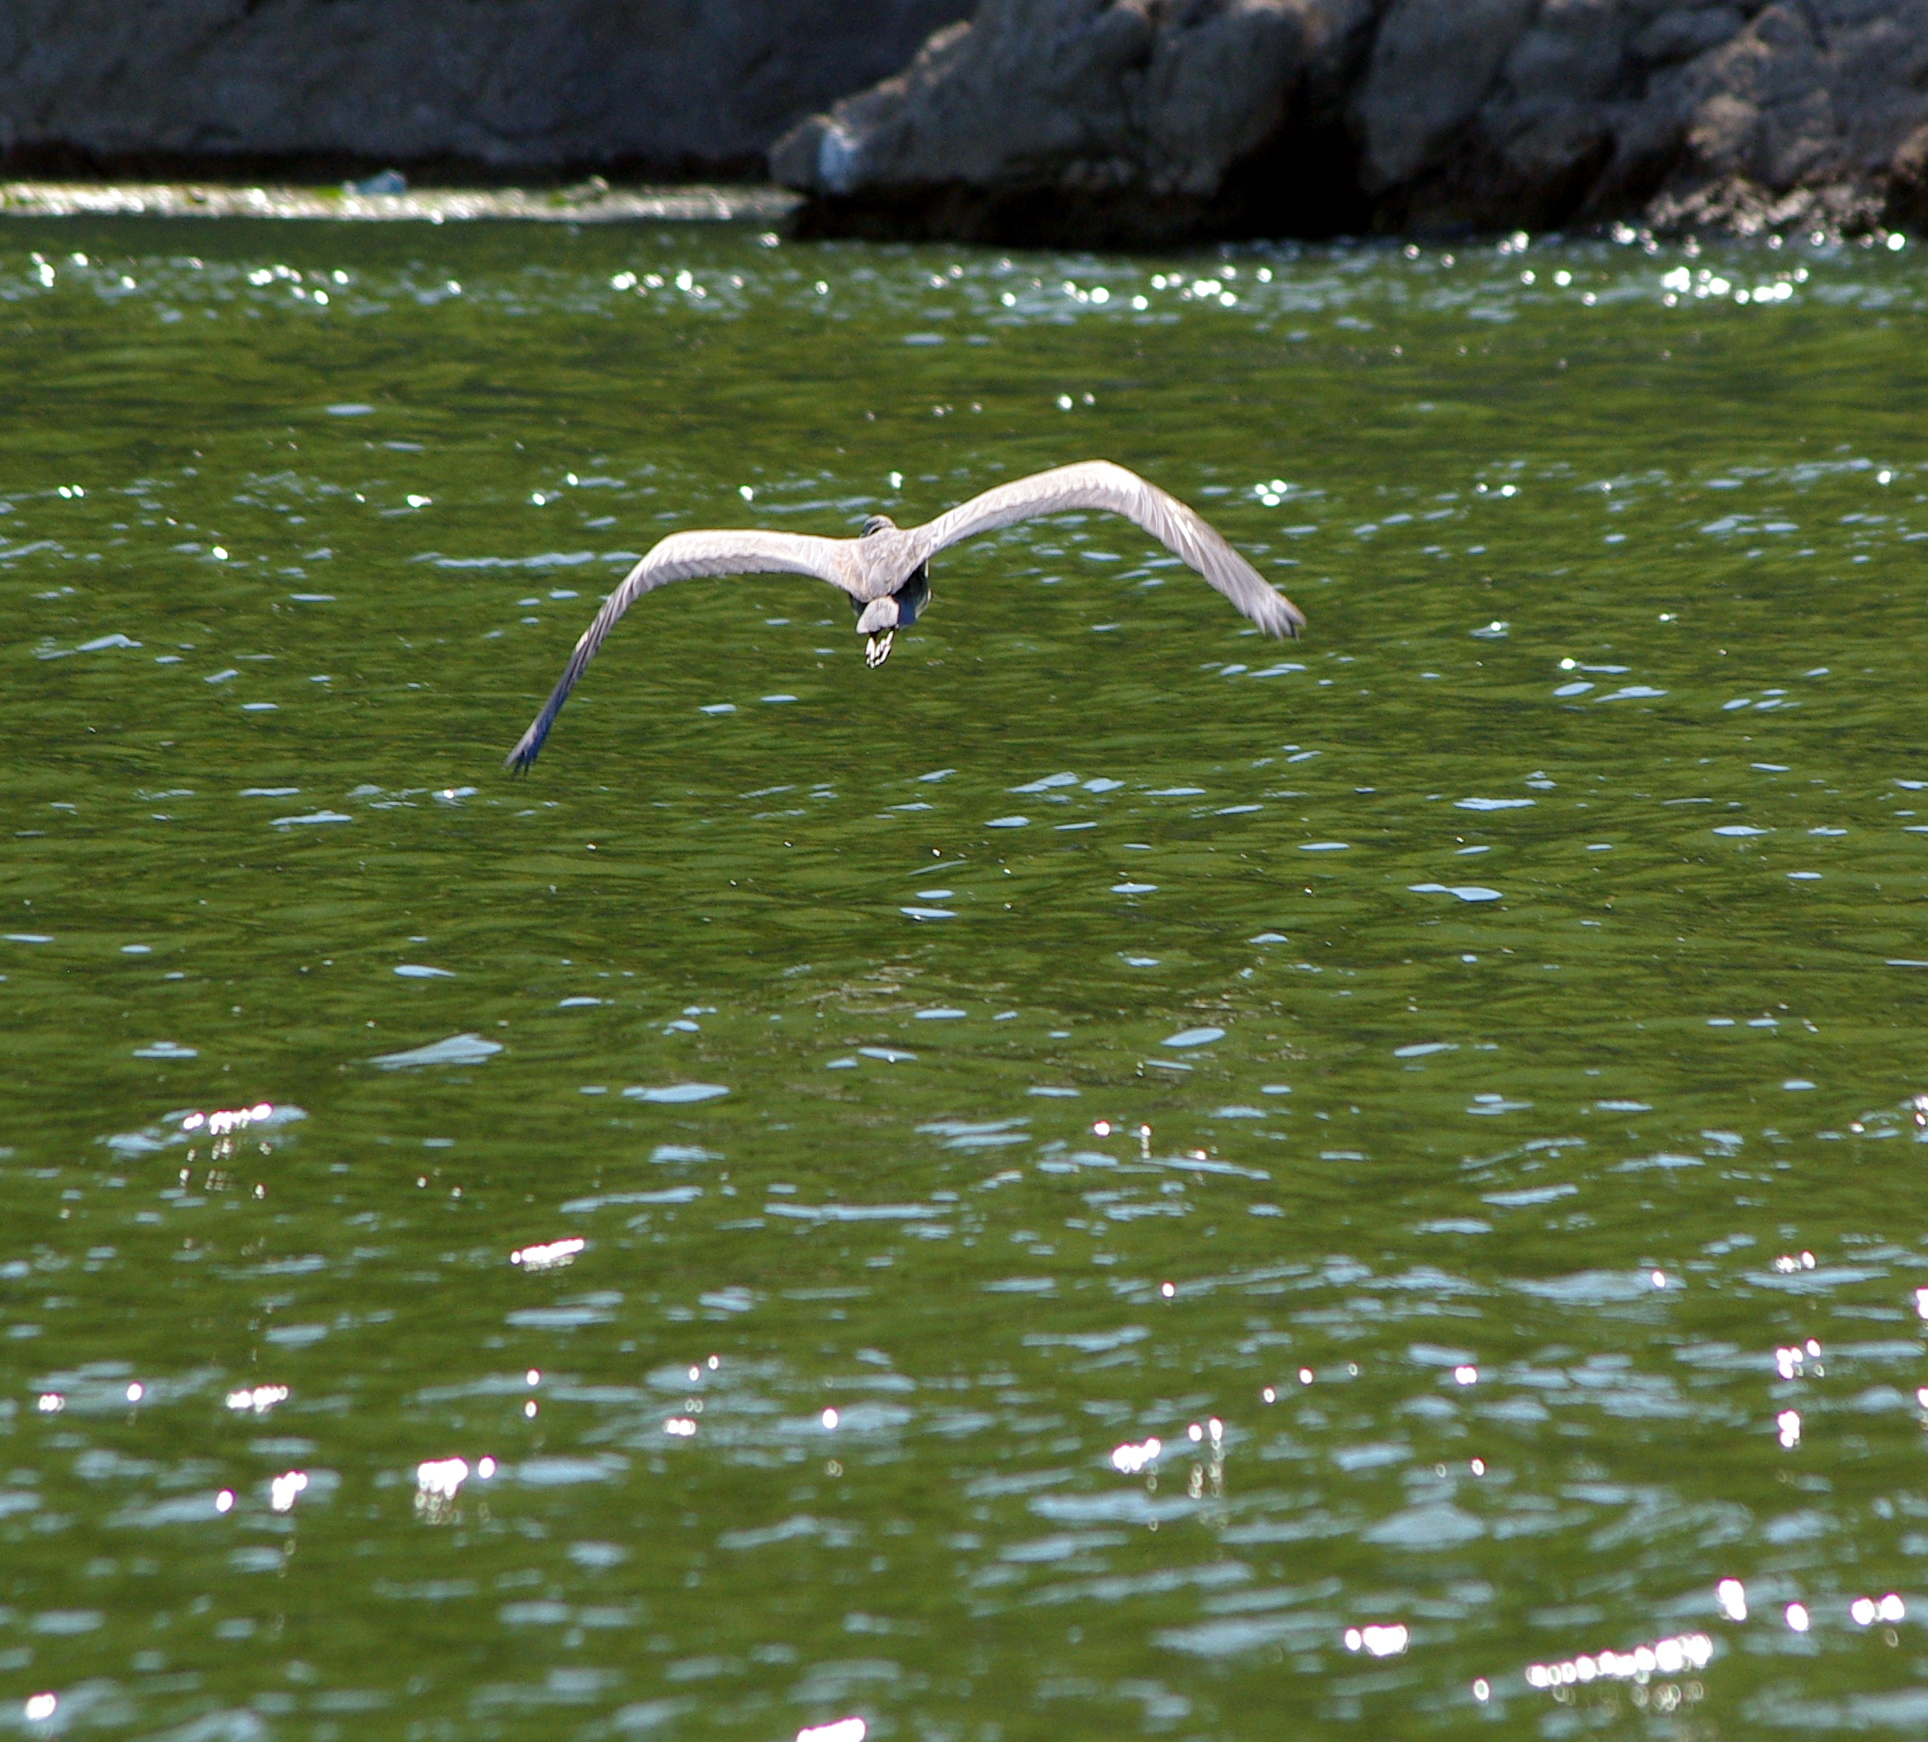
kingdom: Animalia
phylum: Chordata
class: Aves
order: Pelecaniformes
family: Ardeidae
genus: Ardea
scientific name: Ardea cinerea
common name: Grey heron
